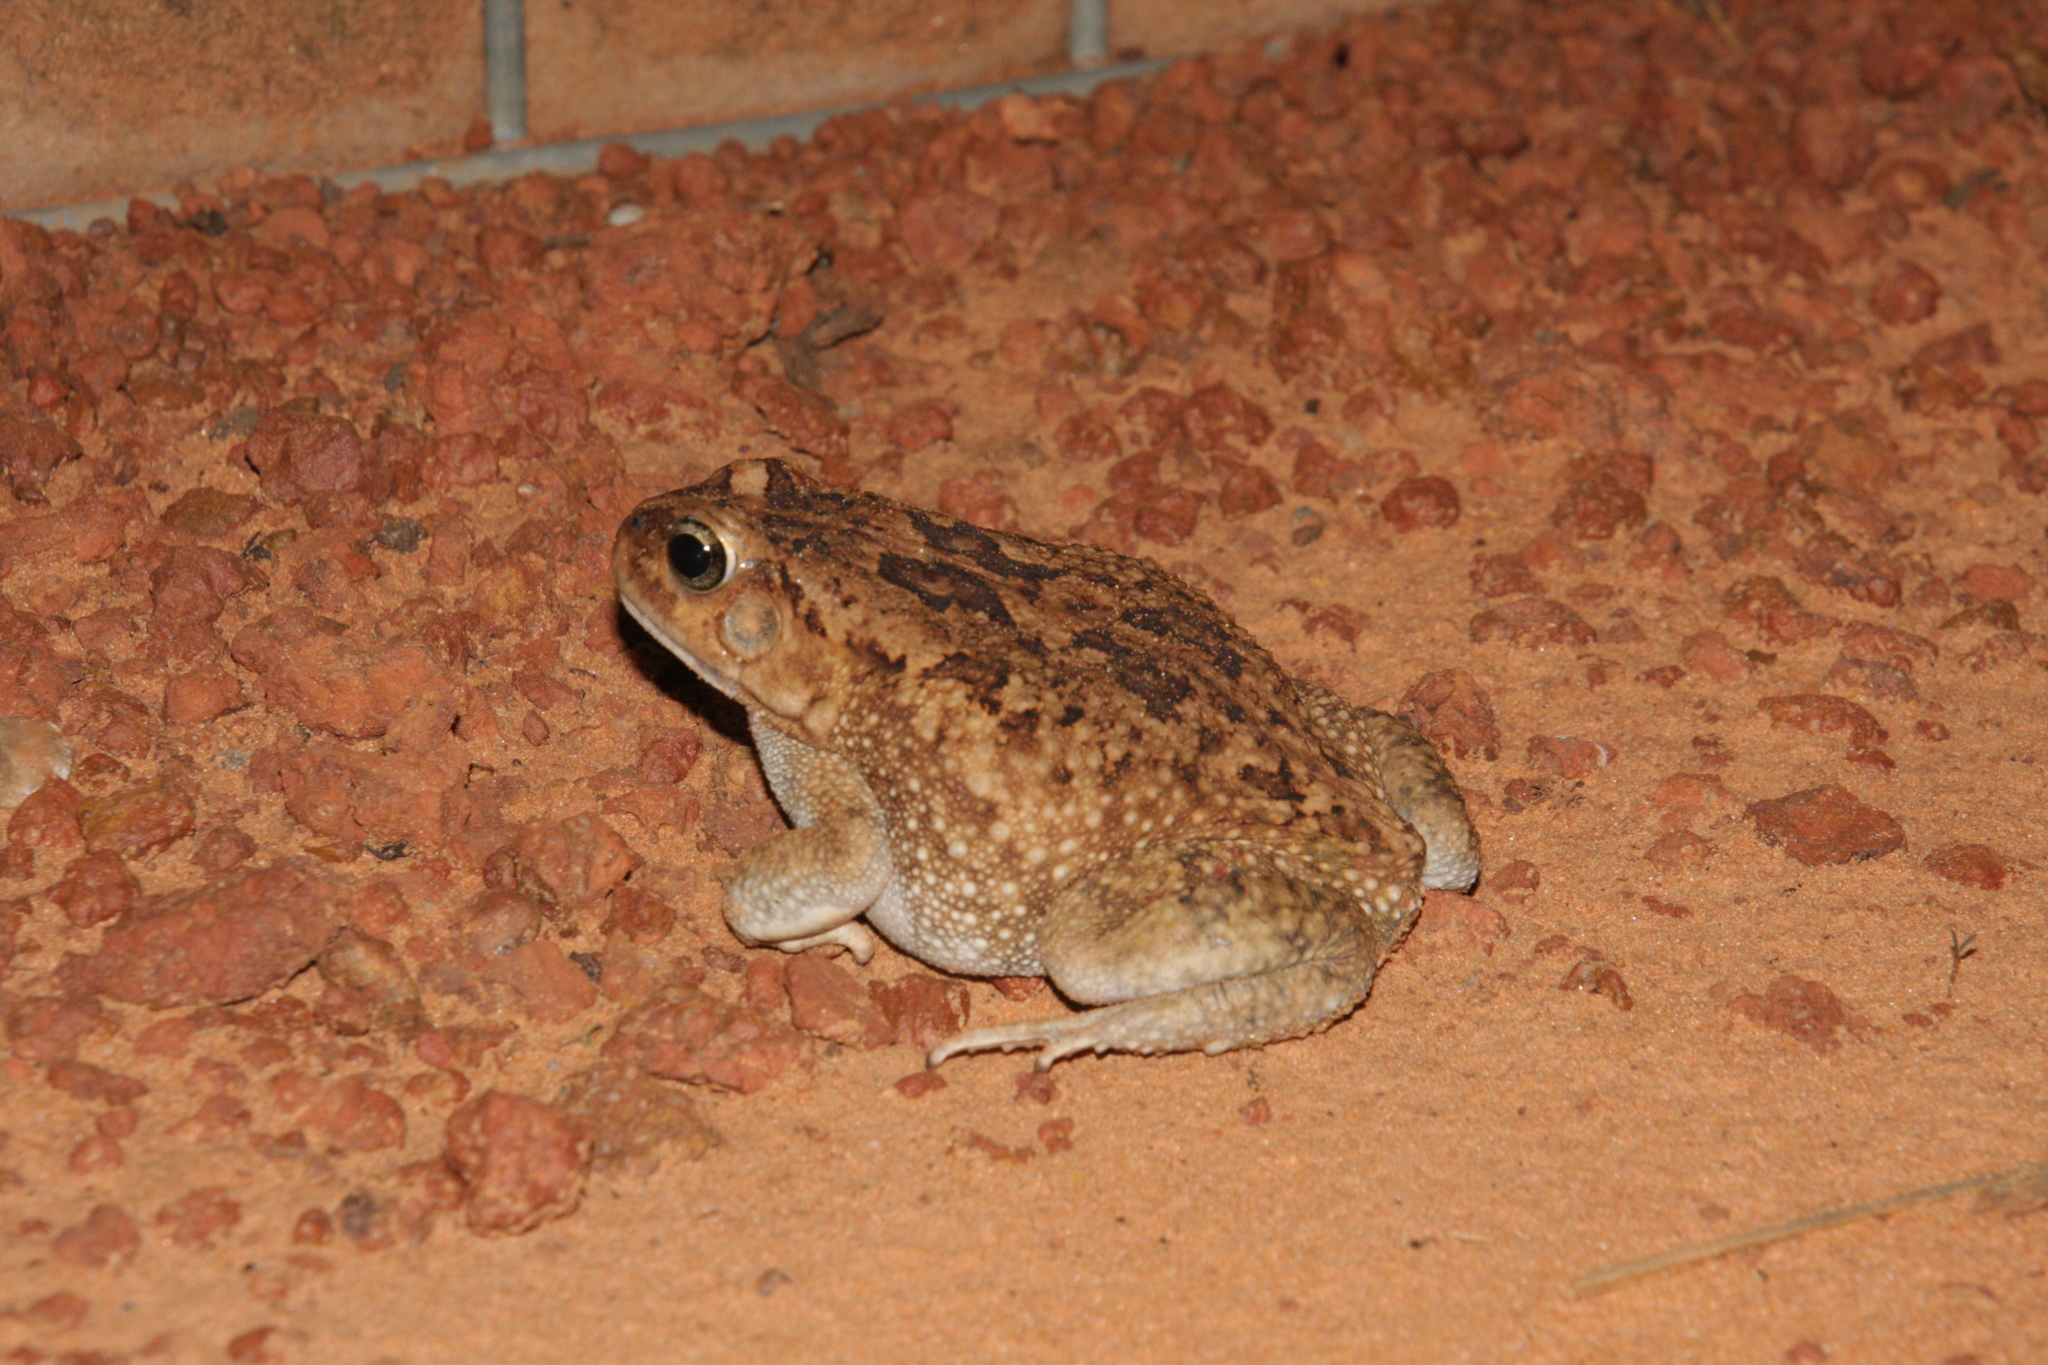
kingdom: Animalia
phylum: Chordata
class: Amphibia
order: Anura
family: Bufonidae
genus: Sclerophrys
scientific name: Sclerophrys xeros
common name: Subdesert toad
